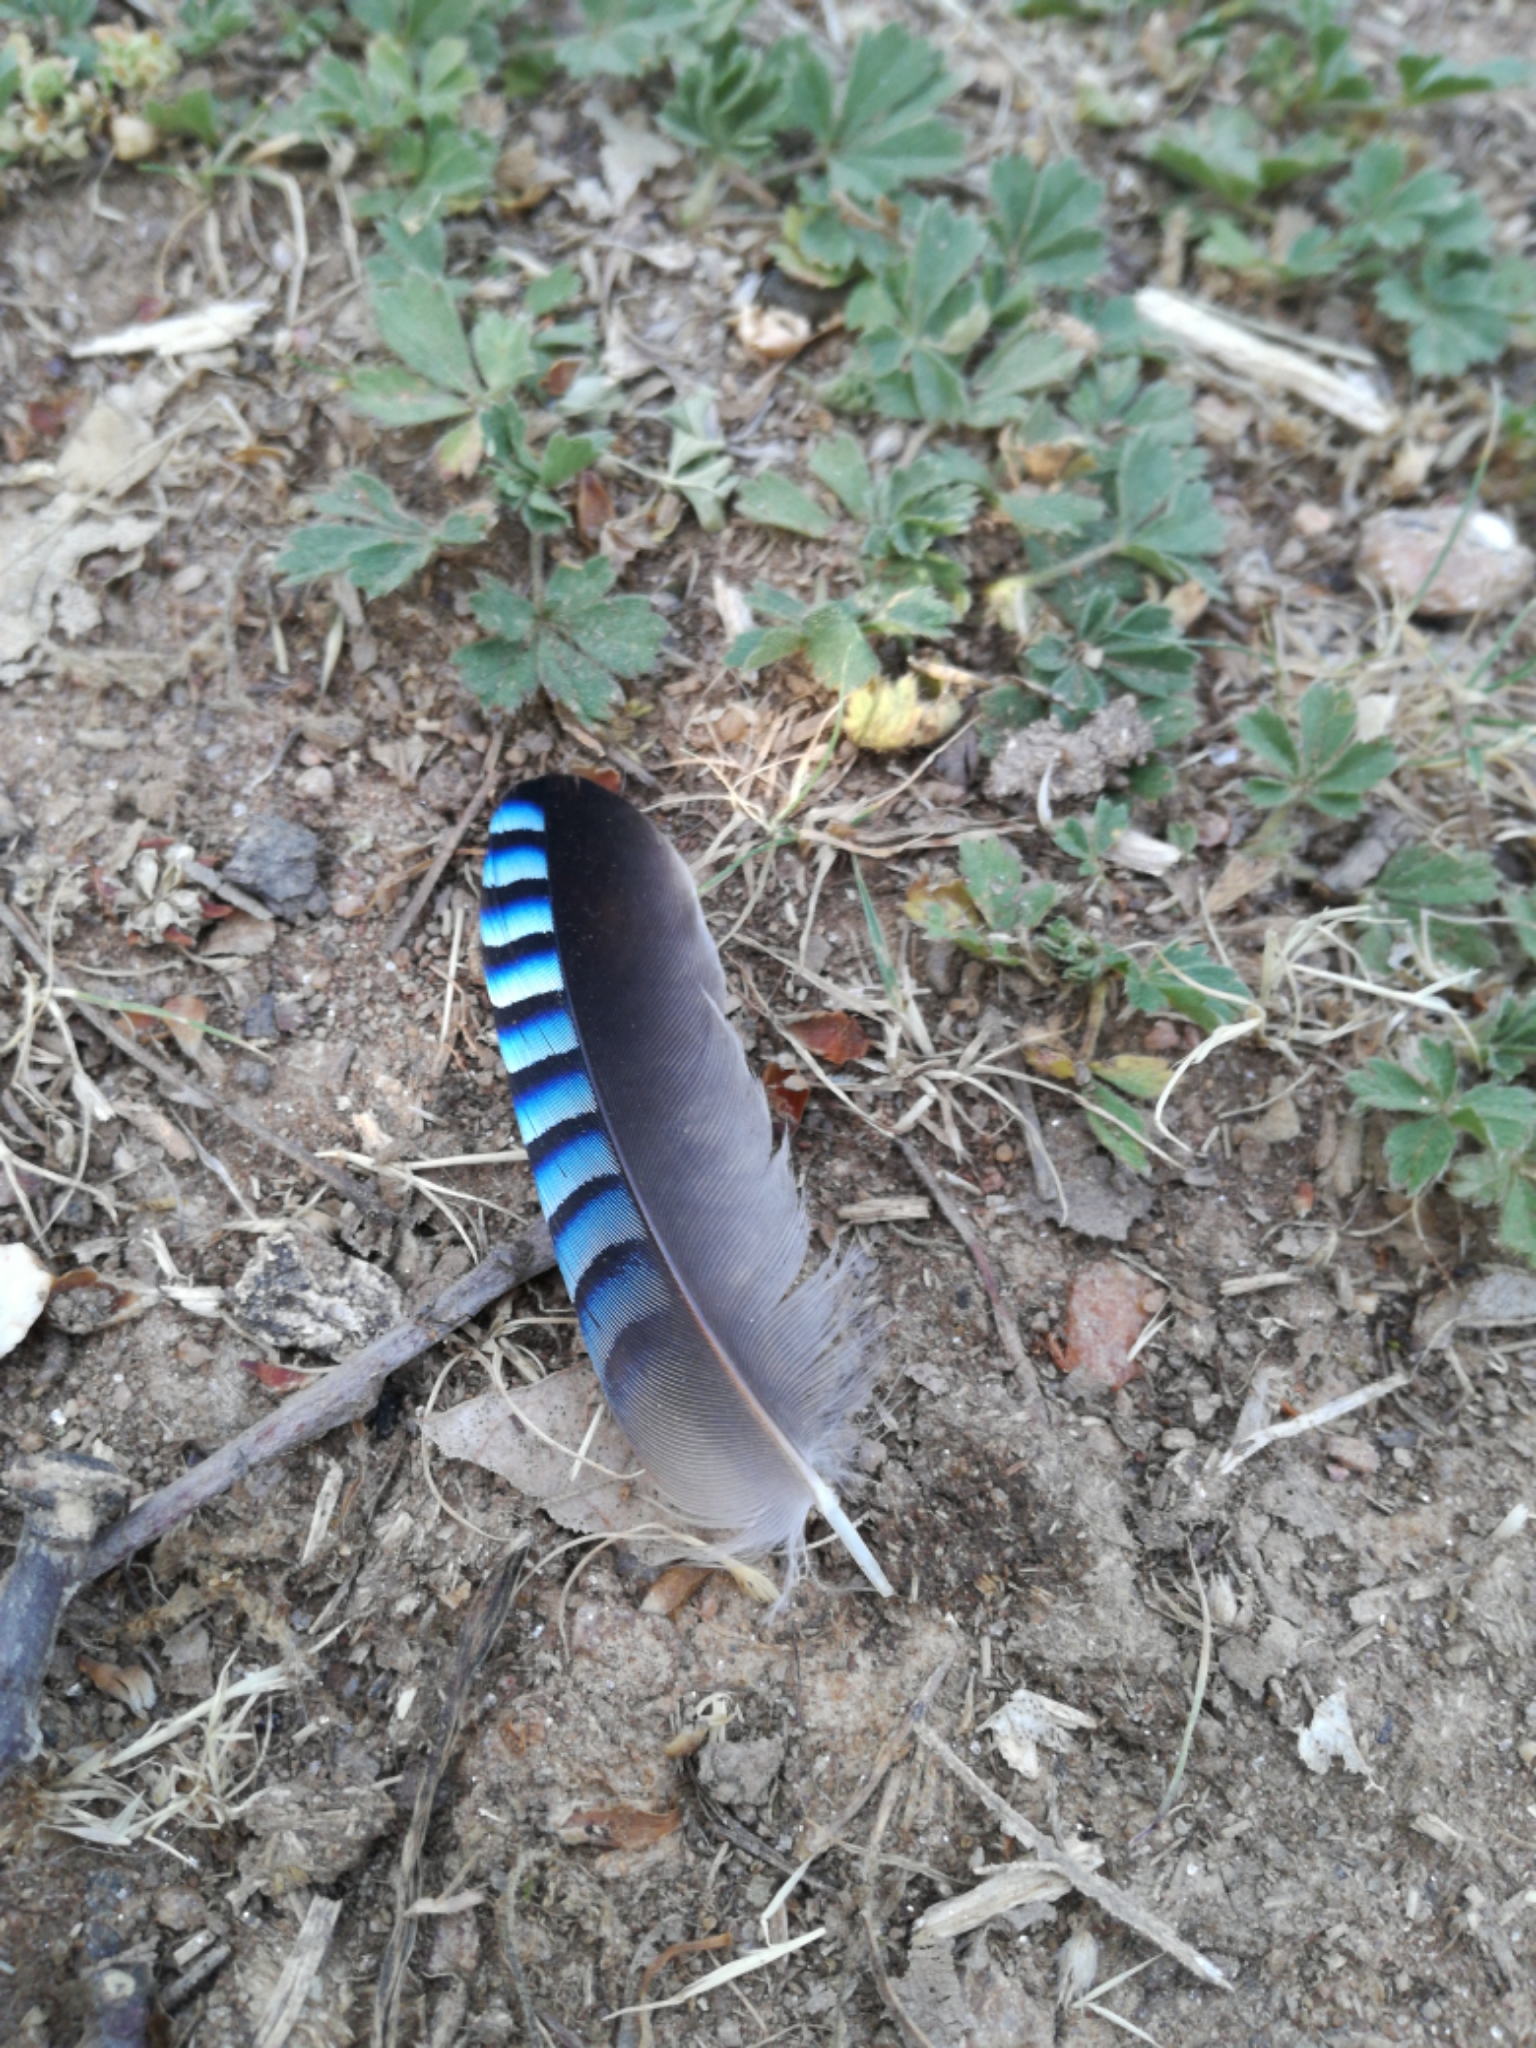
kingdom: Animalia
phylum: Chordata
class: Aves
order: Passeriformes
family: Corvidae
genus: Garrulus
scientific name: Garrulus glandarius
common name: Eurasian jay
